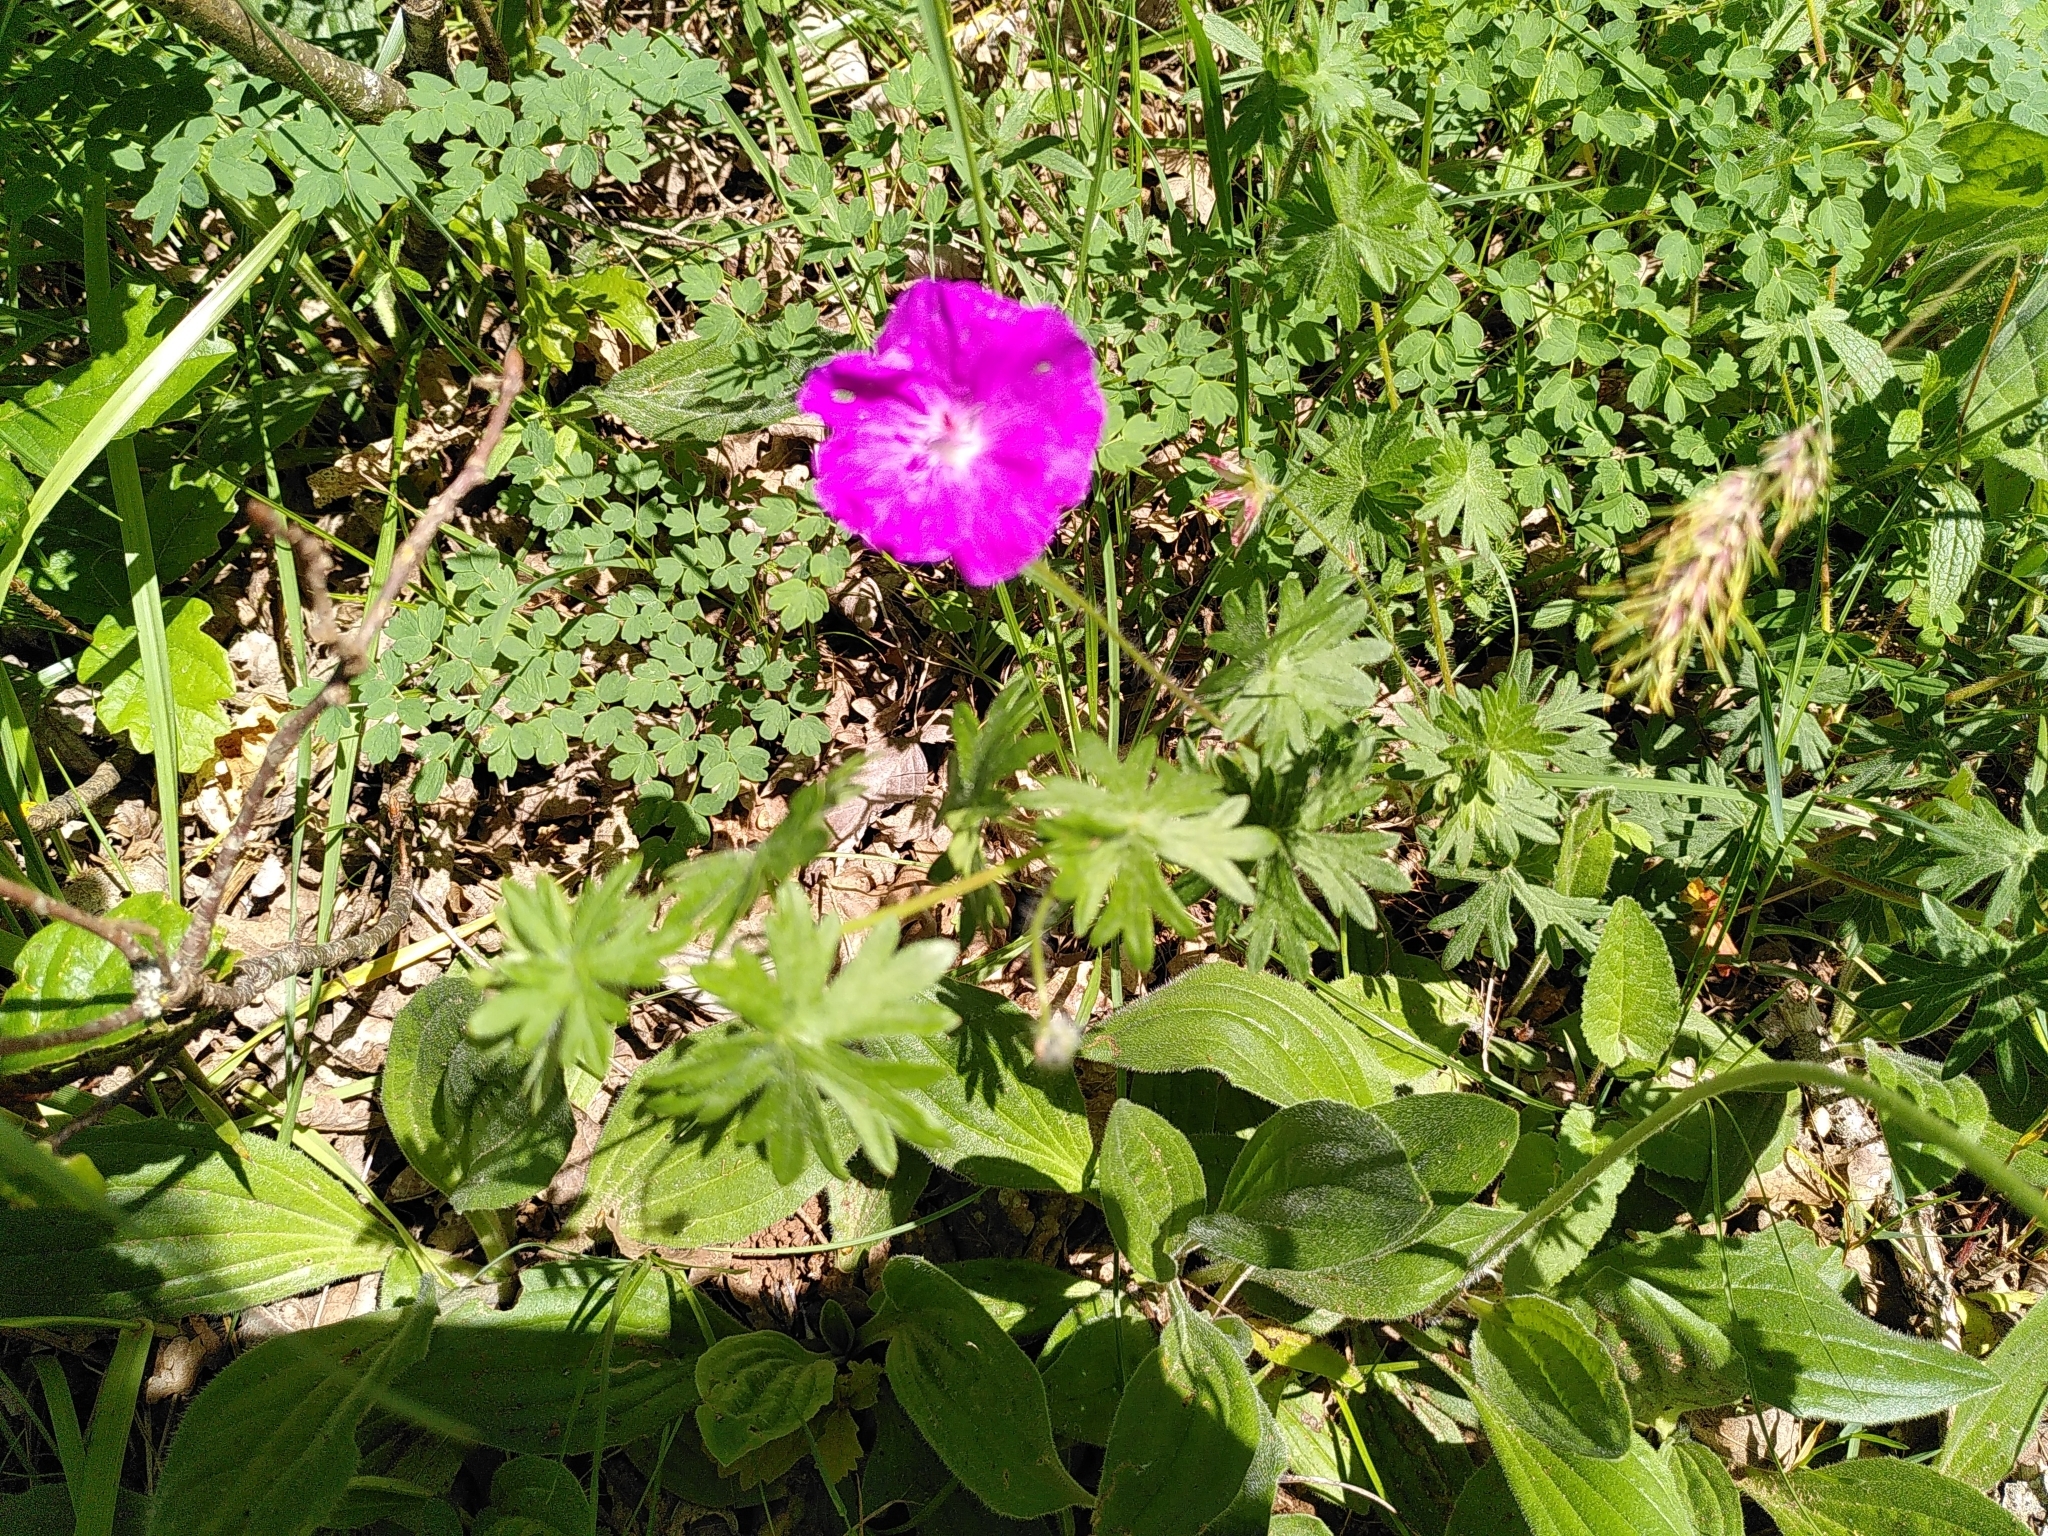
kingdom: Plantae
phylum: Tracheophyta
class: Magnoliopsida
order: Geraniales
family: Geraniaceae
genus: Geranium
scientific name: Geranium sanguineum
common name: Bloody crane's-bill
